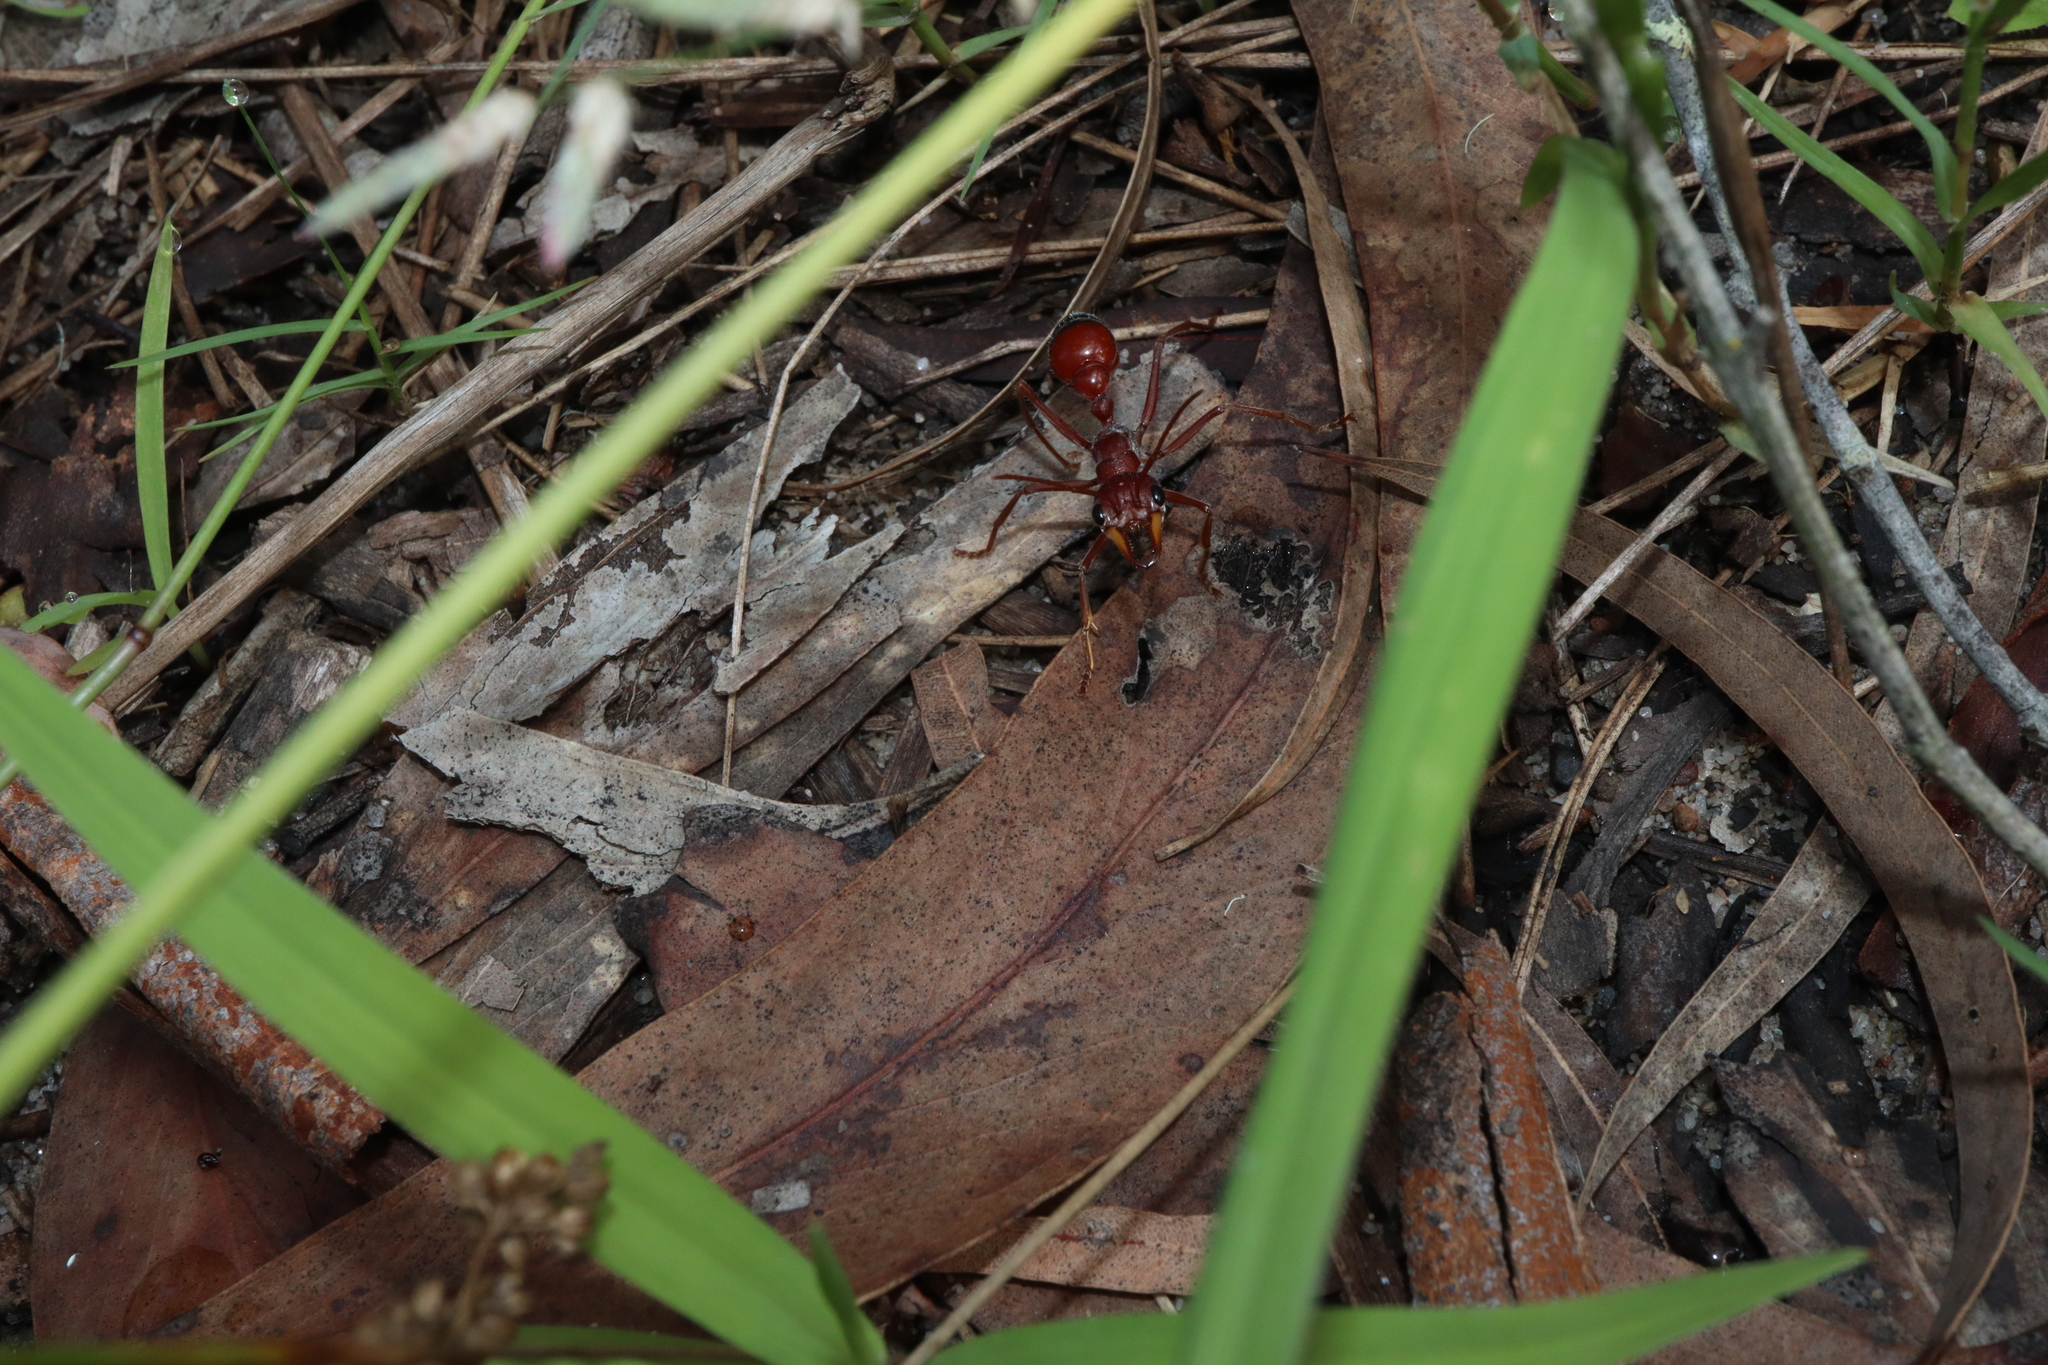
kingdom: Animalia
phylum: Arthropoda
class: Insecta
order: Hymenoptera
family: Formicidae
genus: Myrmecia
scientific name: Myrmecia gulosa
